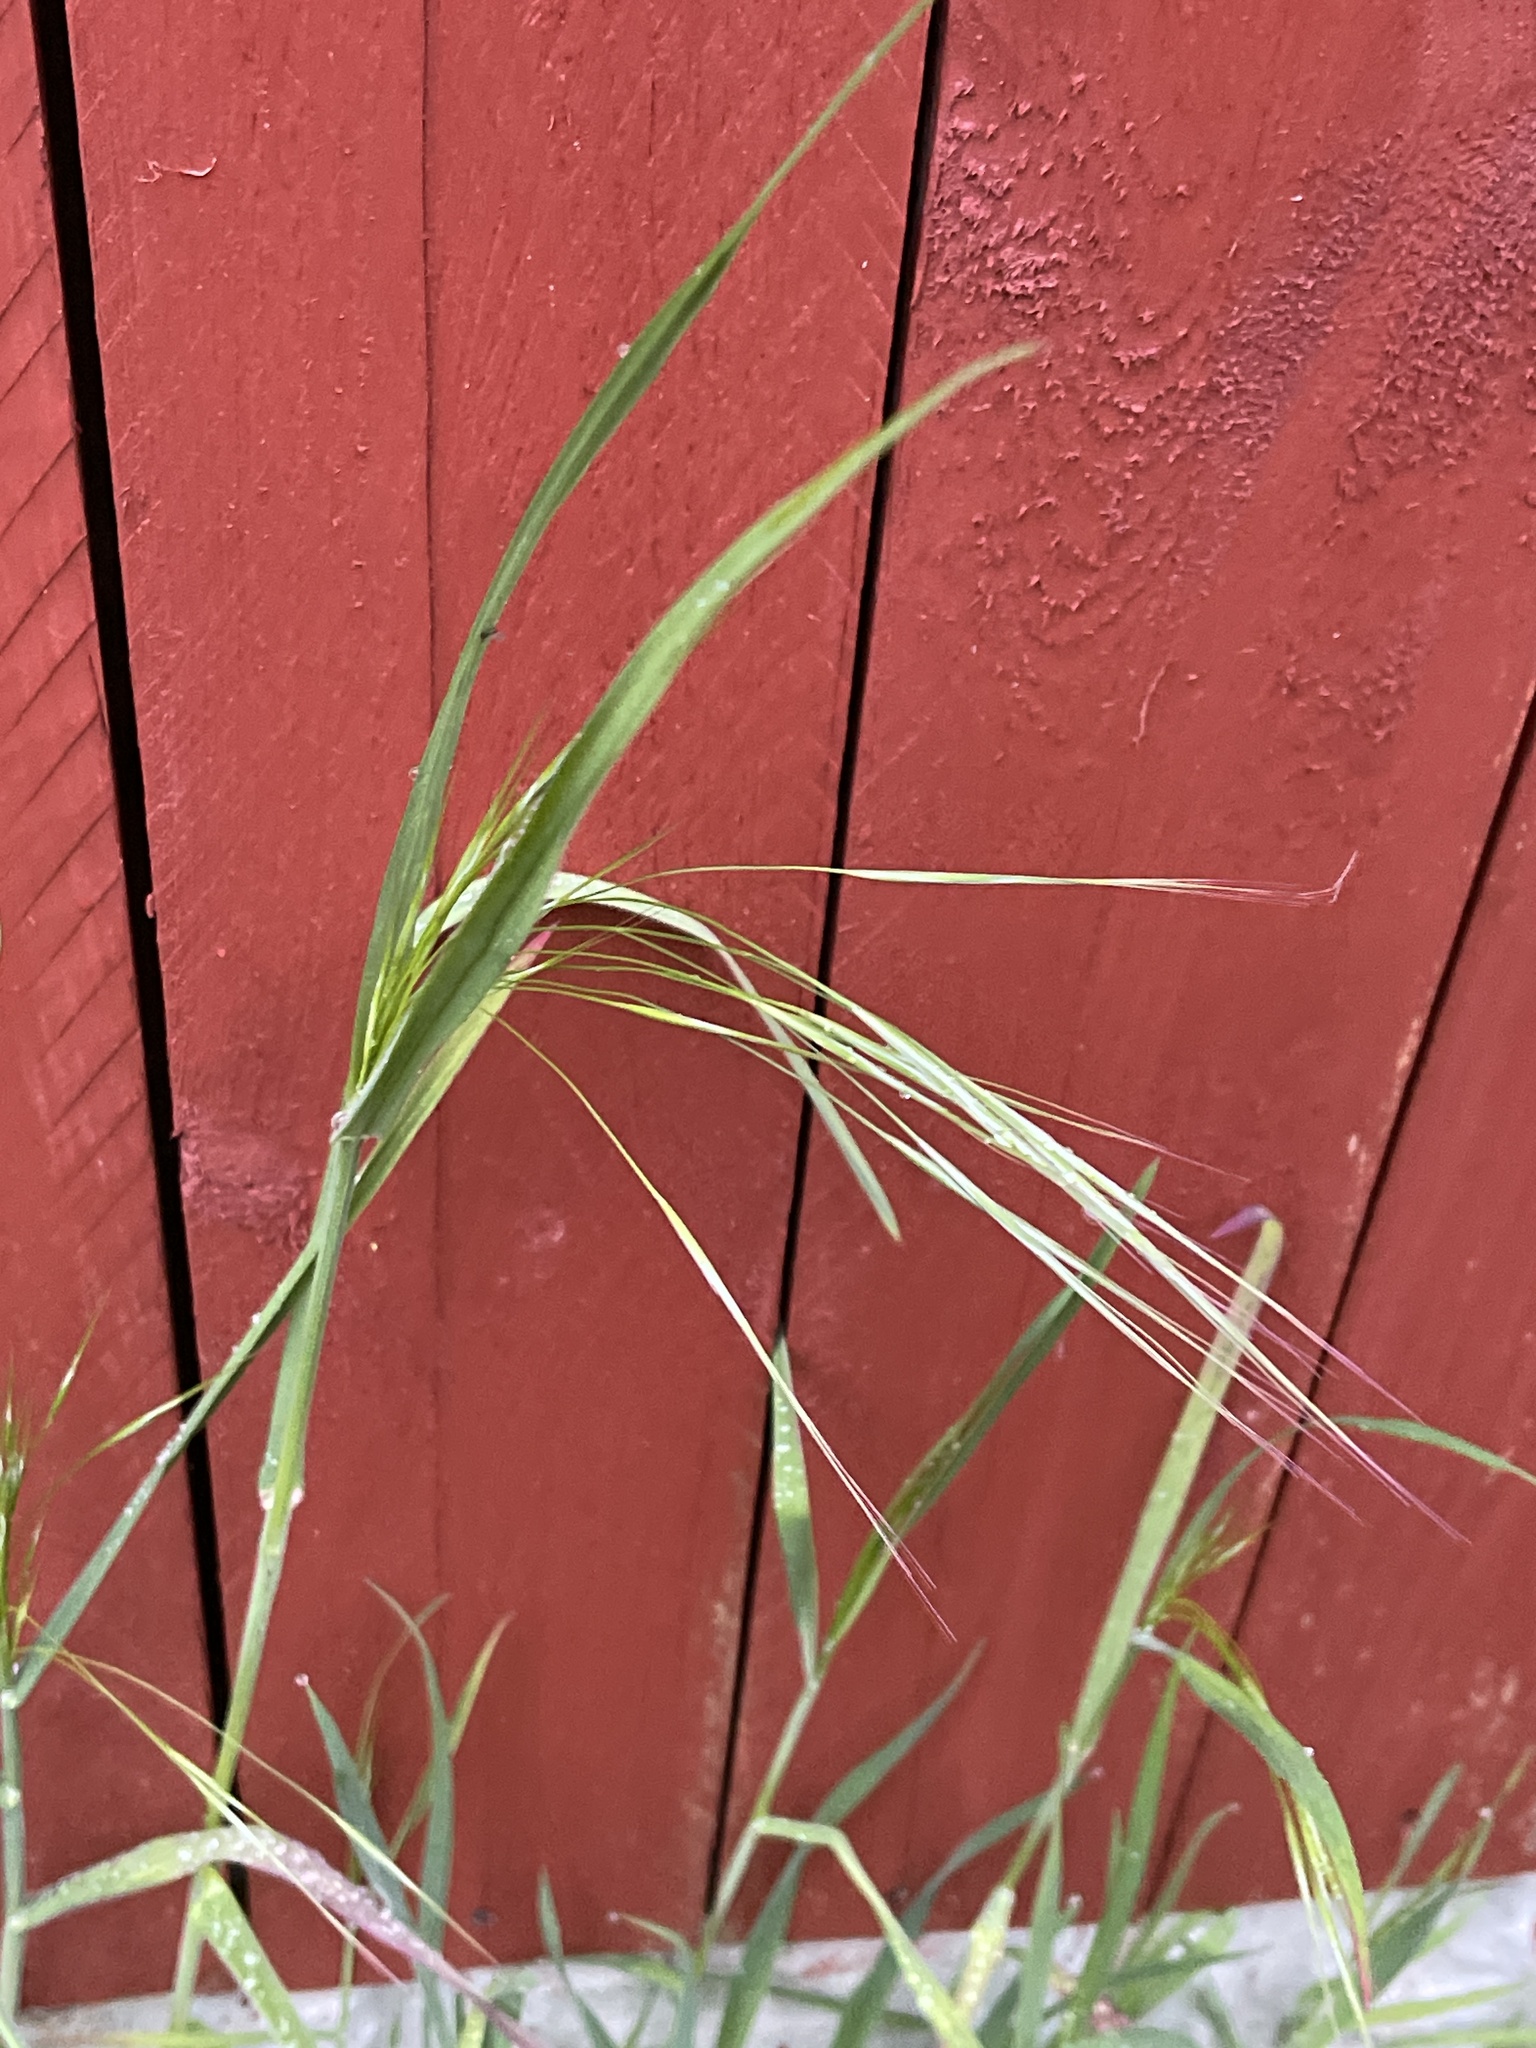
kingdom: Plantae
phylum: Tracheophyta
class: Liliopsida
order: Poales
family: Poaceae
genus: Bromus
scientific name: Bromus sterilis
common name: Poverty brome
